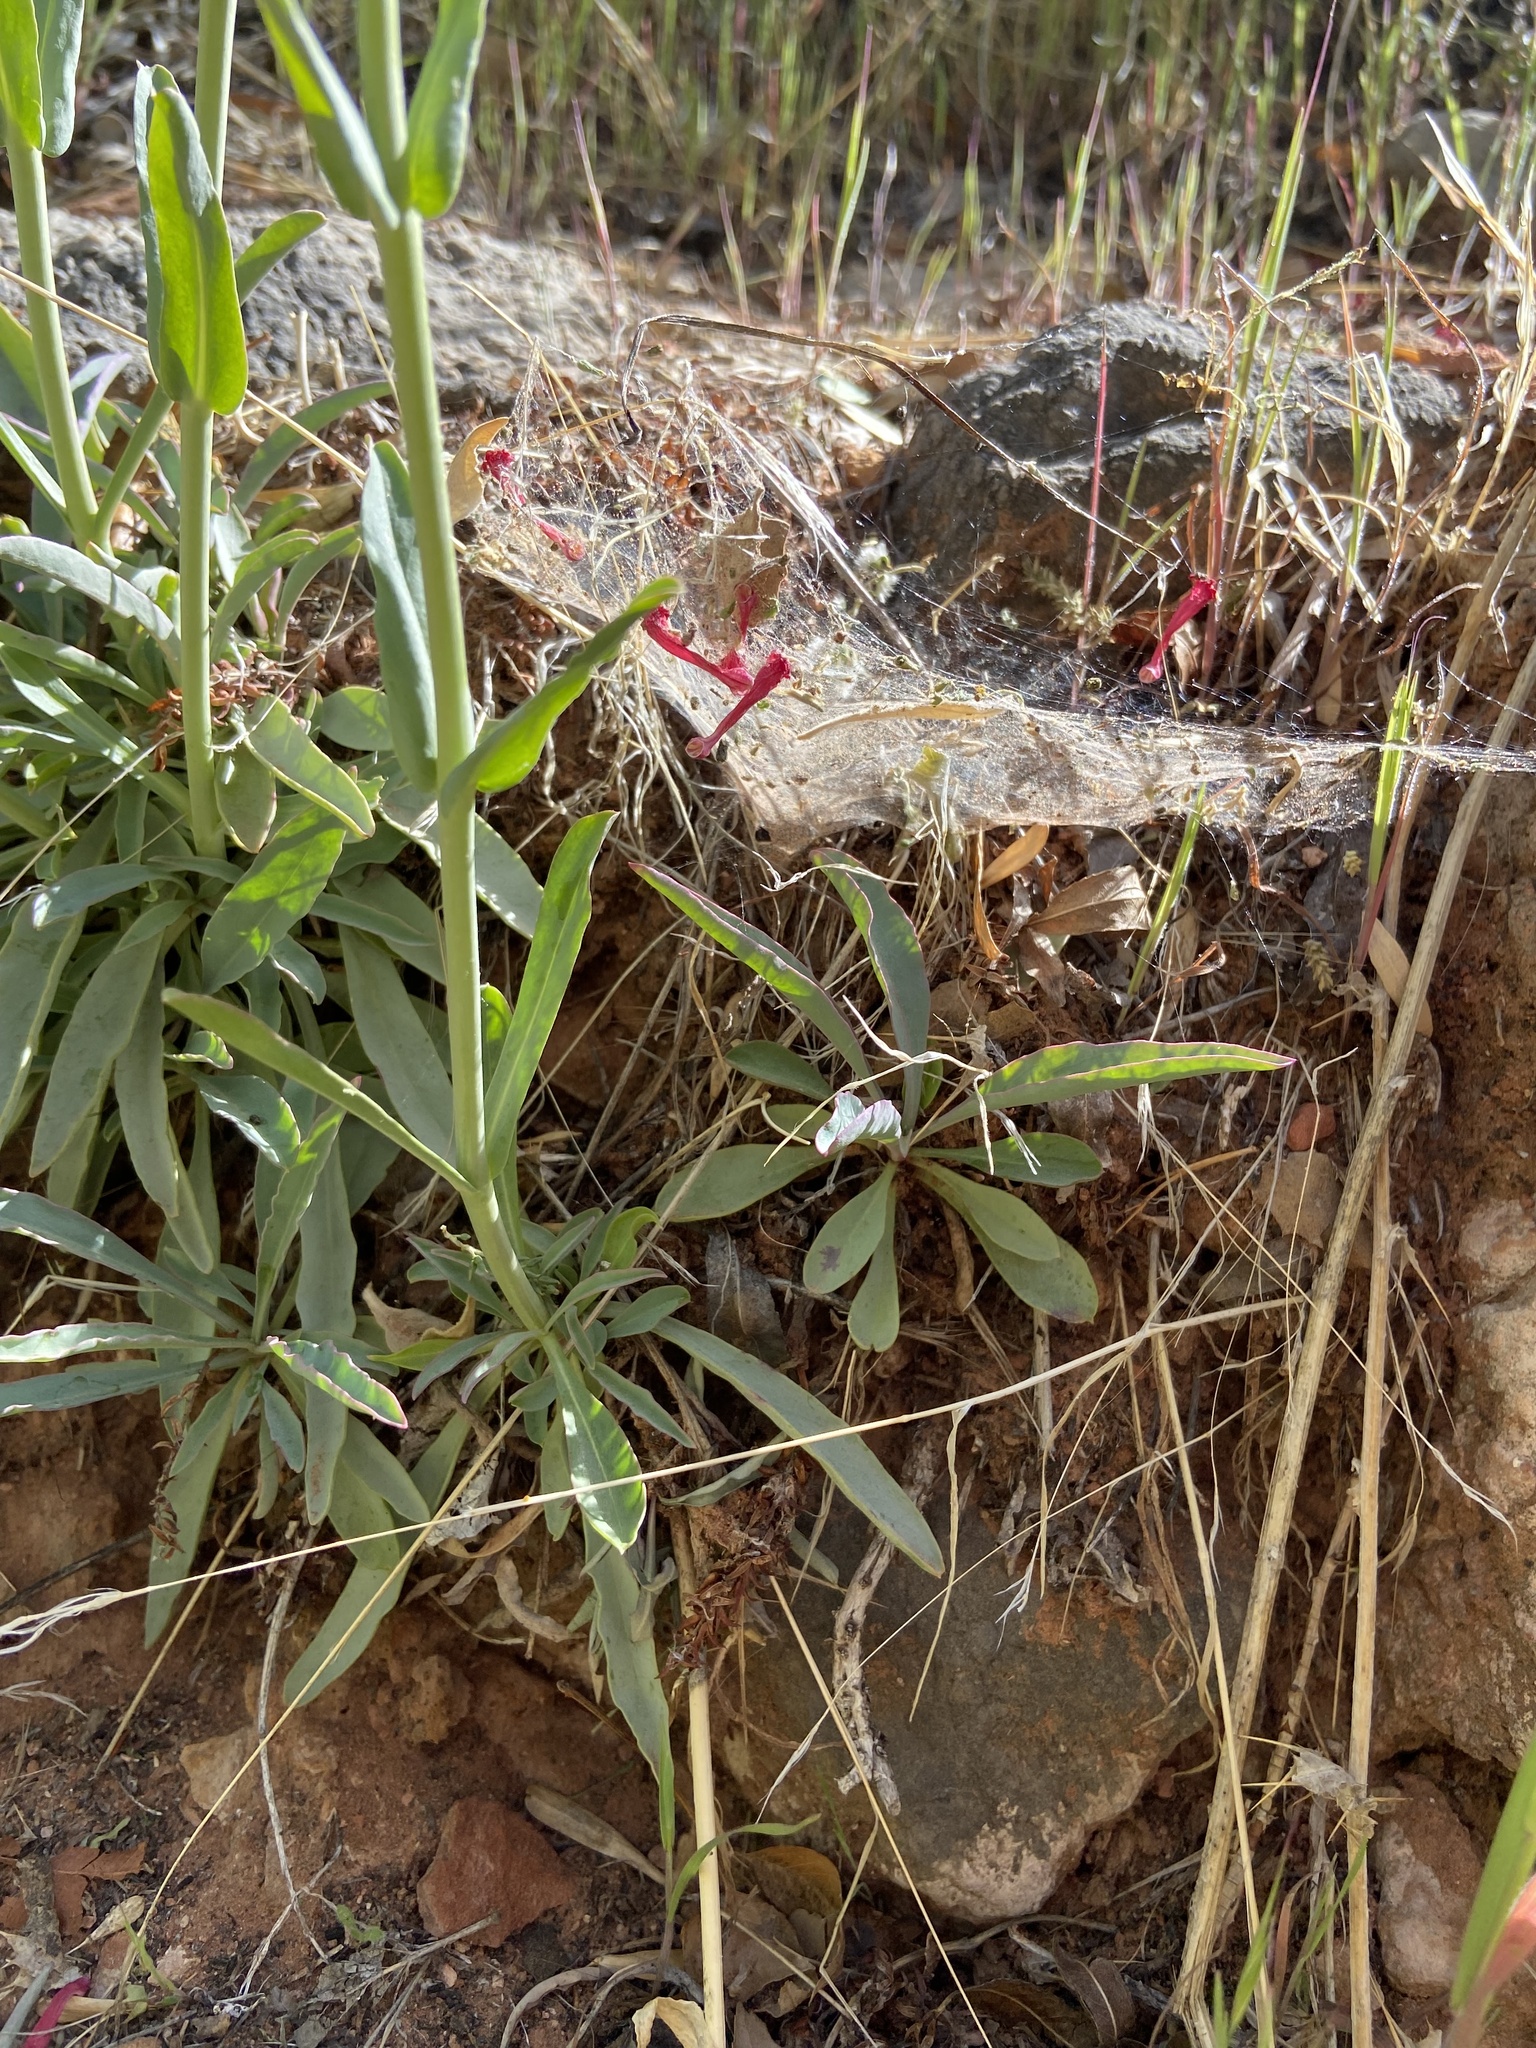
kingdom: Plantae
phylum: Tracheophyta
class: Magnoliopsida
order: Lamiales
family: Plantaginaceae
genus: Penstemon
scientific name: Penstemon utahensis
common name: Utah penstemon
